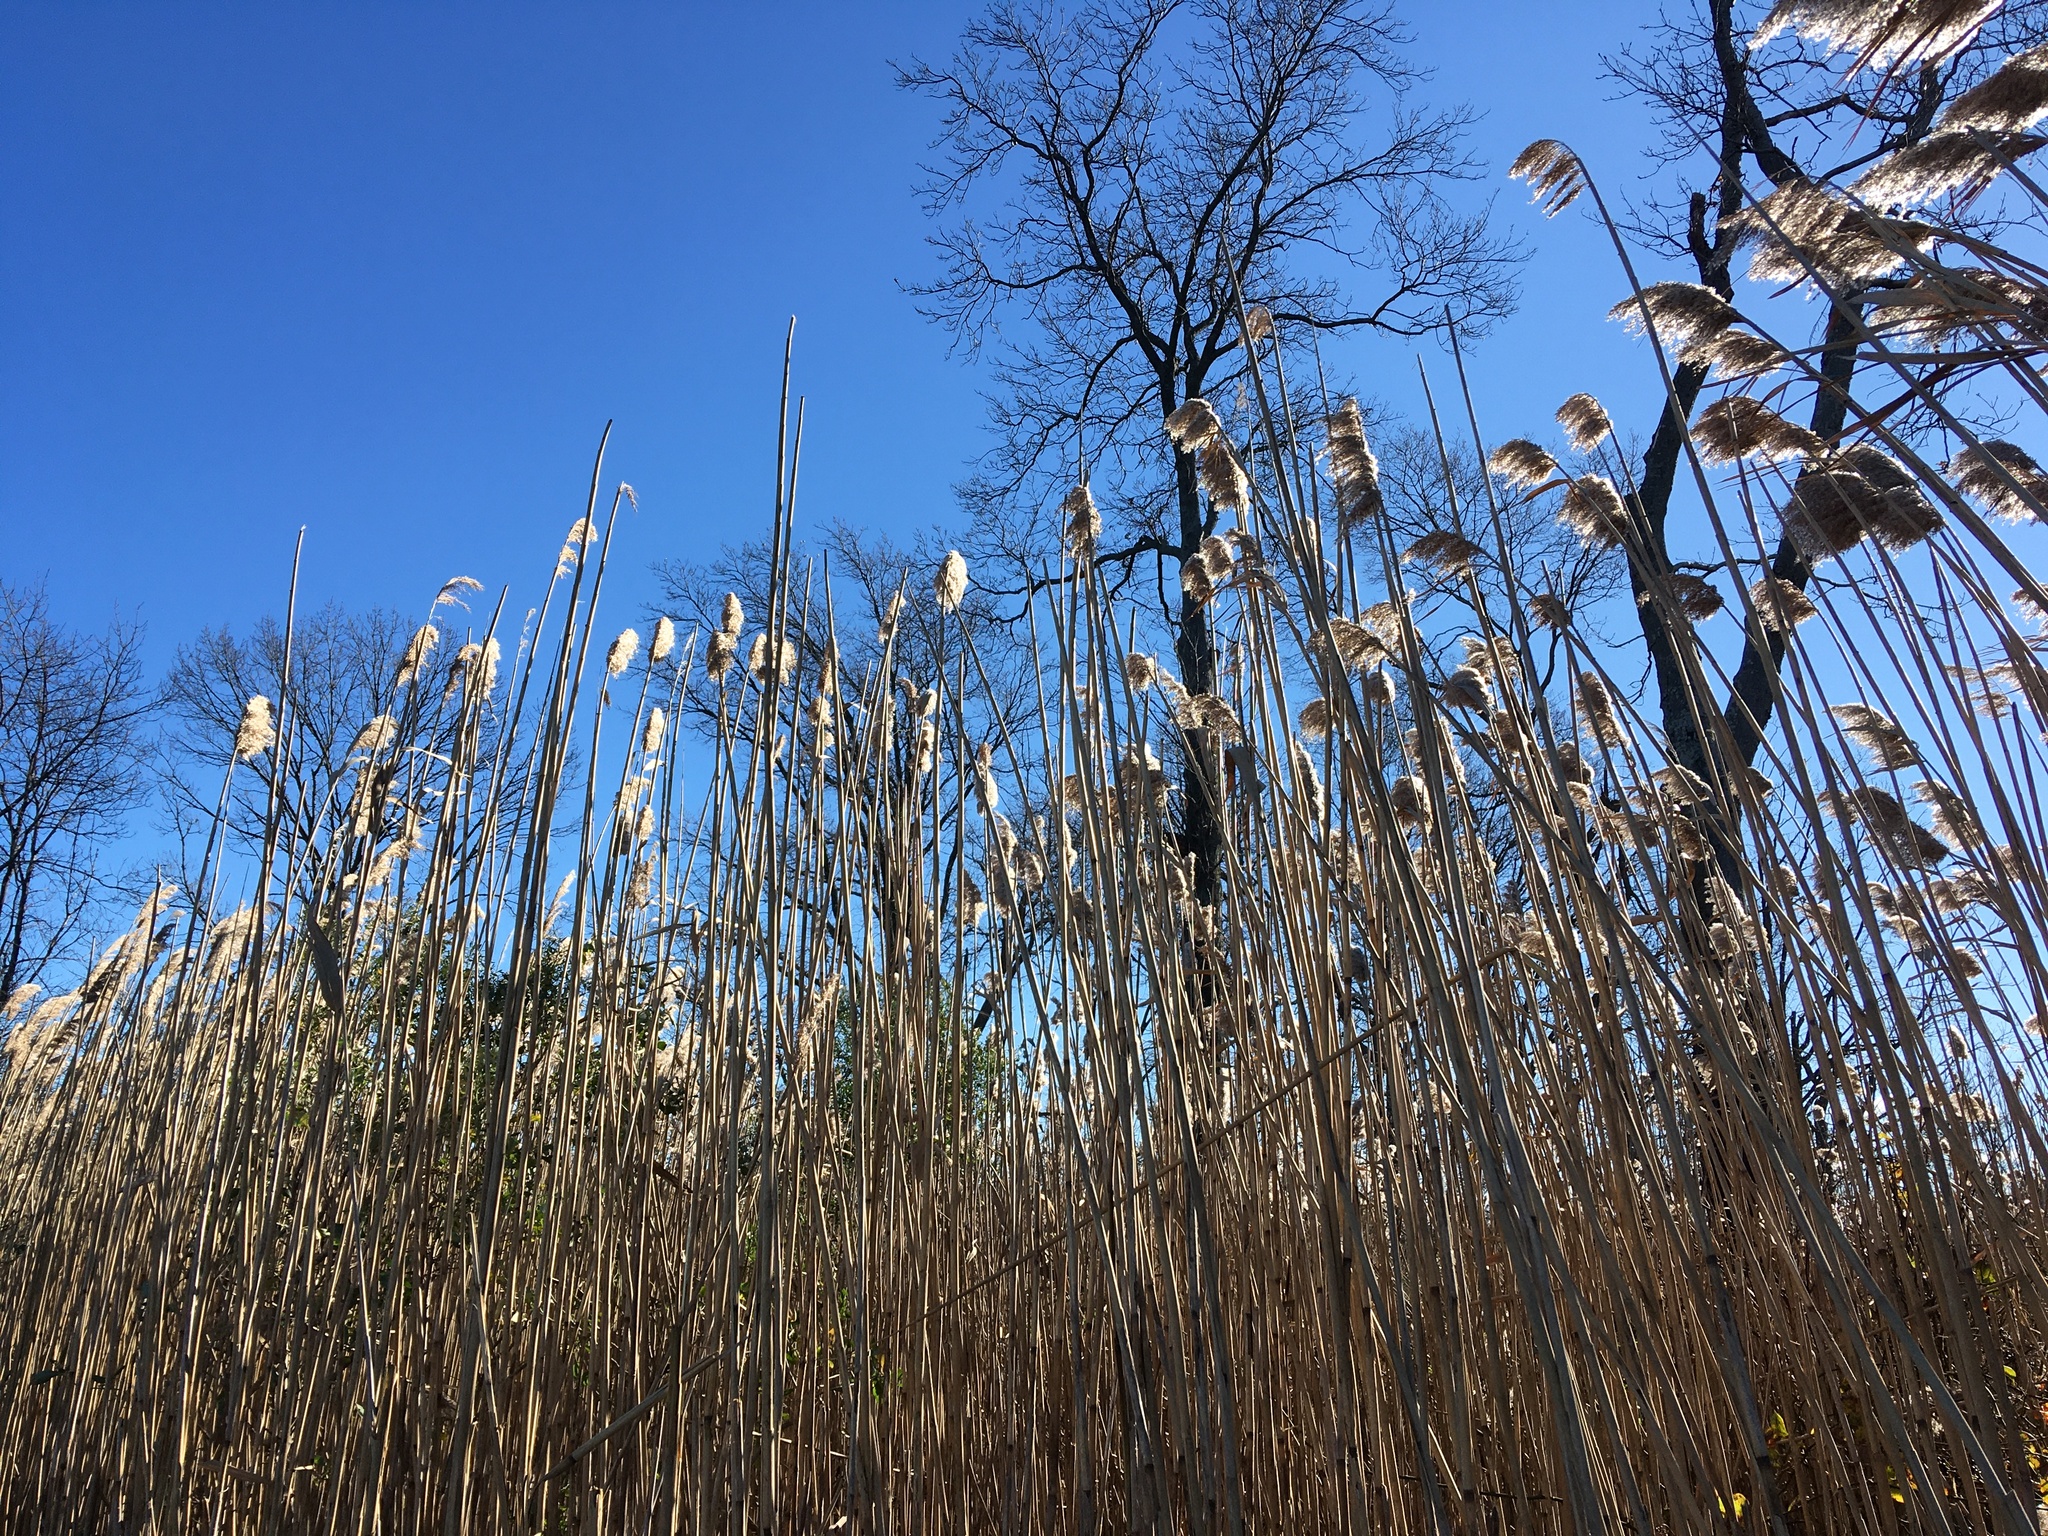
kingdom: Plantae
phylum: Tracheophyta
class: Liliopsida
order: Poales
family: Poaceae
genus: Phragmites
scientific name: Phragmites australis
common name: Common reed
